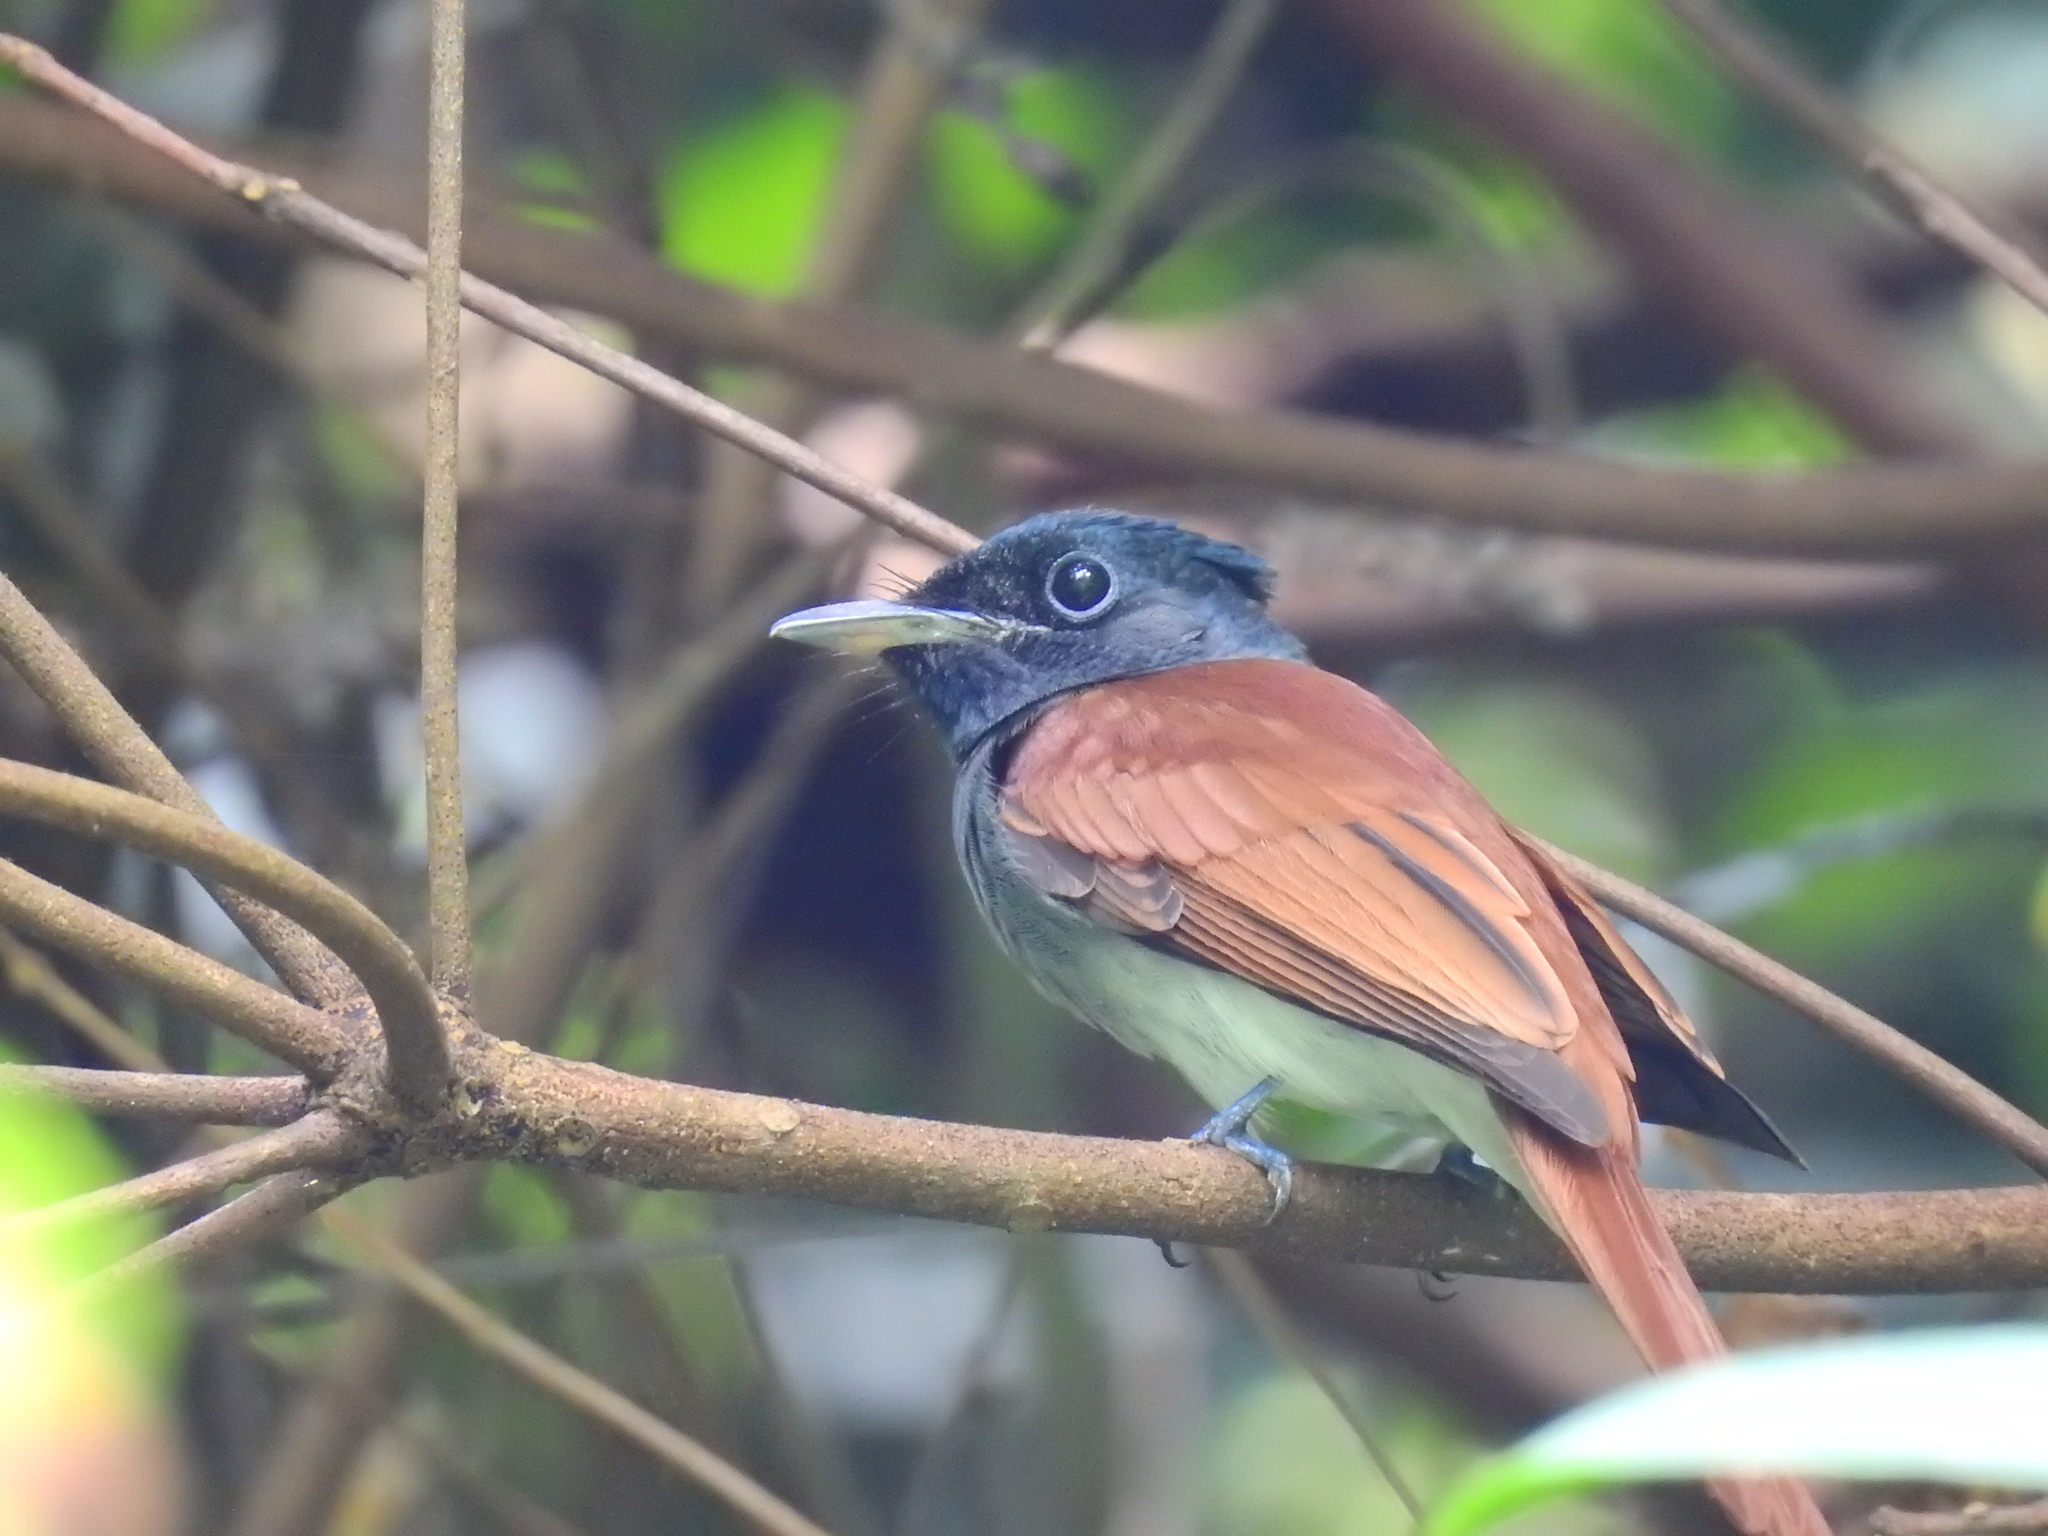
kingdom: Animalia
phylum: Chordata
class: Aves
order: Passeriformes
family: Monarchidae
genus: Terpsiphone
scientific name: Terpsiphone paradisi
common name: Indian paradise flycatcher
